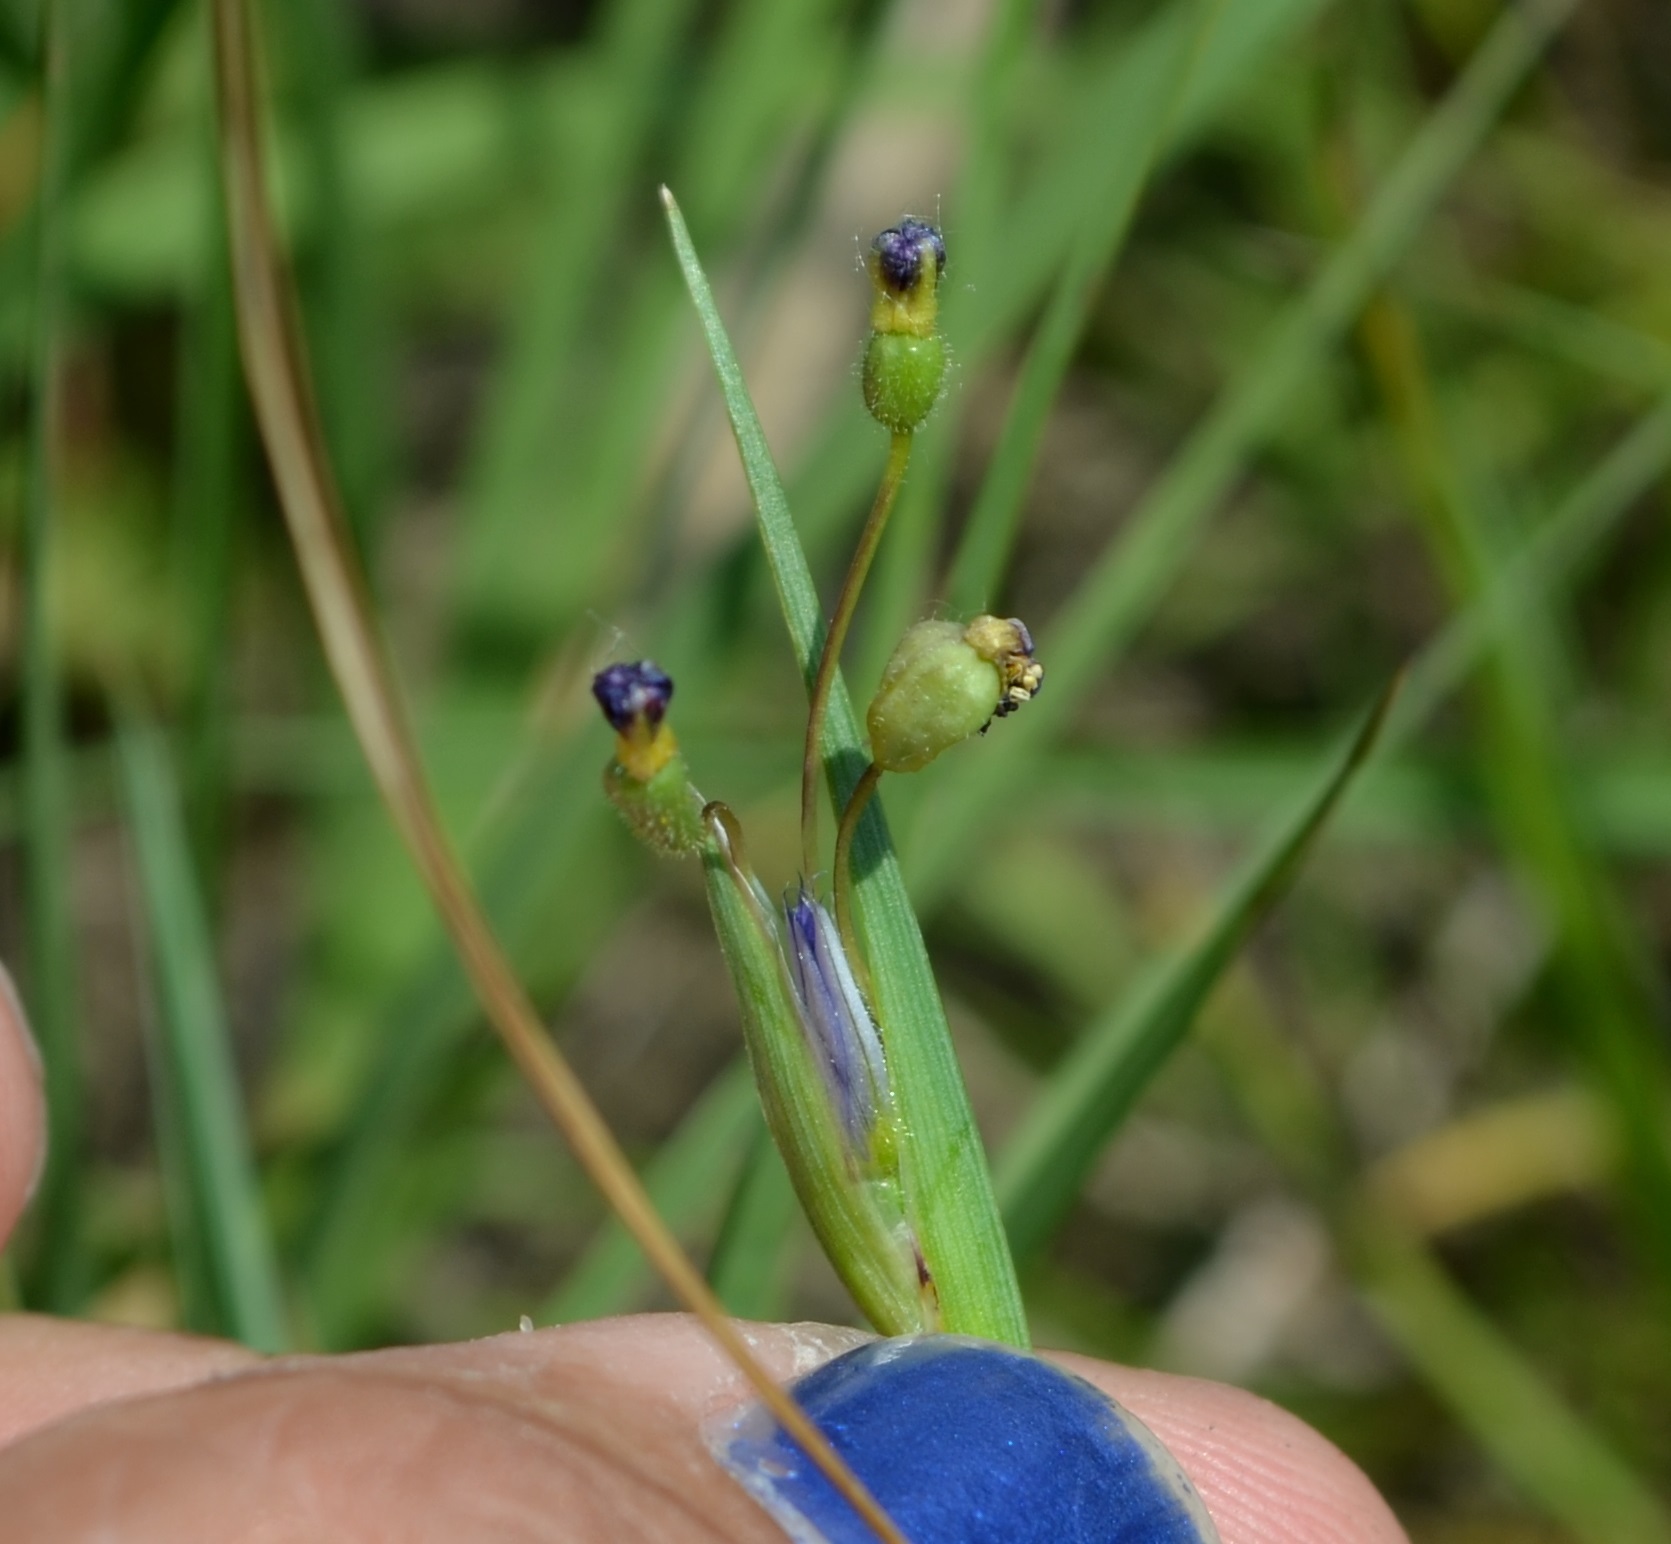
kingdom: Plantae
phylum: Tracheophyta
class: Liliopsida
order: Asparagales
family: Iridaceae
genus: Sisyrinchium
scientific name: Sisyrinchium angustifolium
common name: Narrow-leaf blue-eyed-grass
